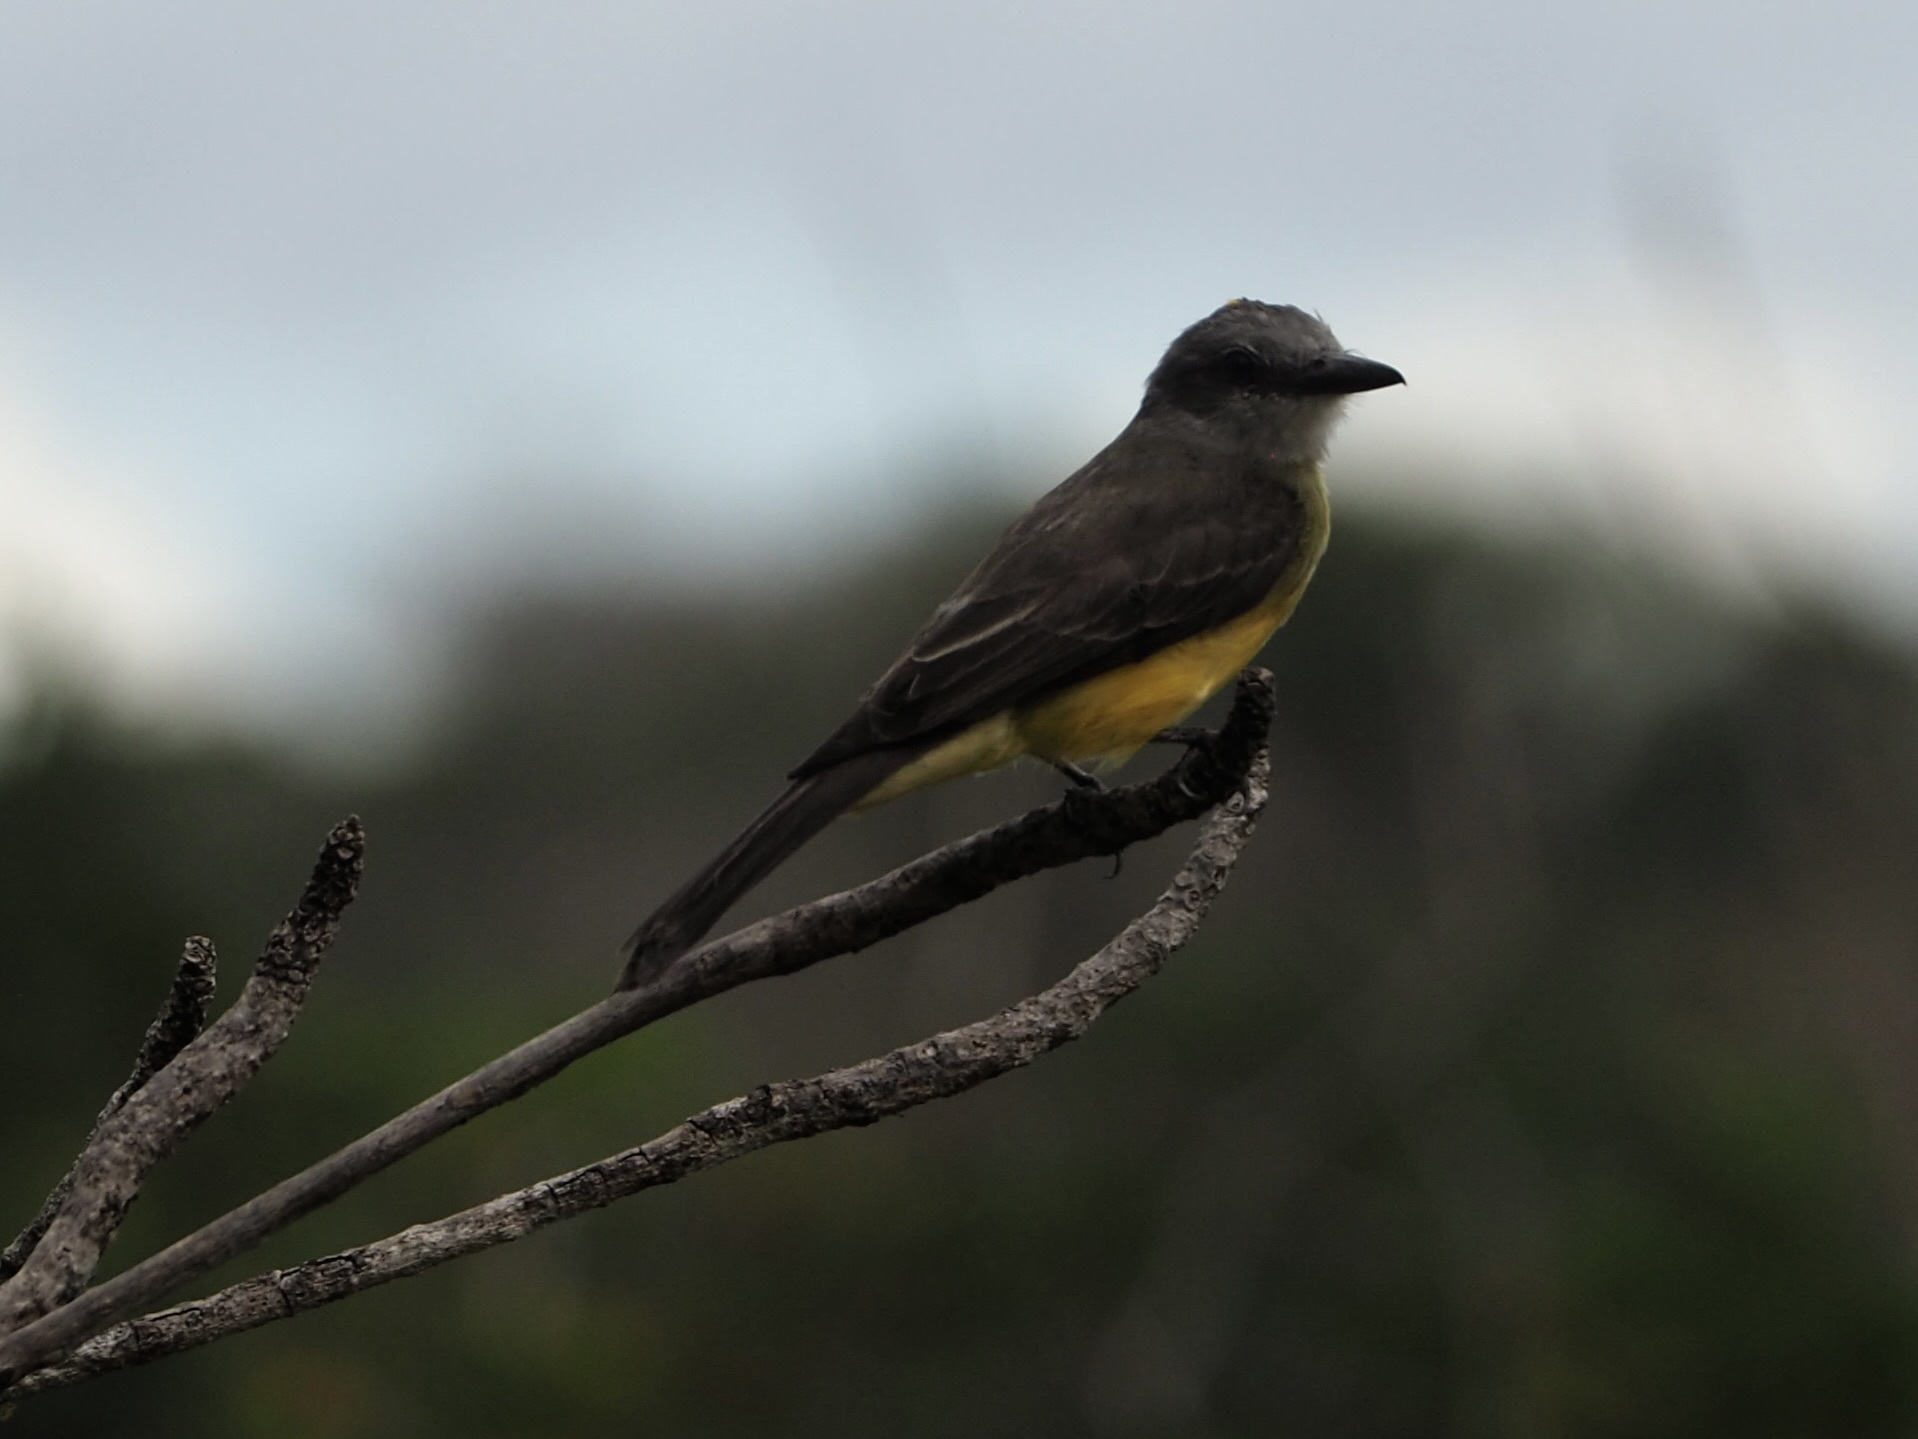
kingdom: Animalia
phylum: Chordata
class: Aves
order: Passeriformes
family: Tyrannidae
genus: Tyrannus
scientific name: Tyrannus melancholicus
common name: Tropical kingbird
